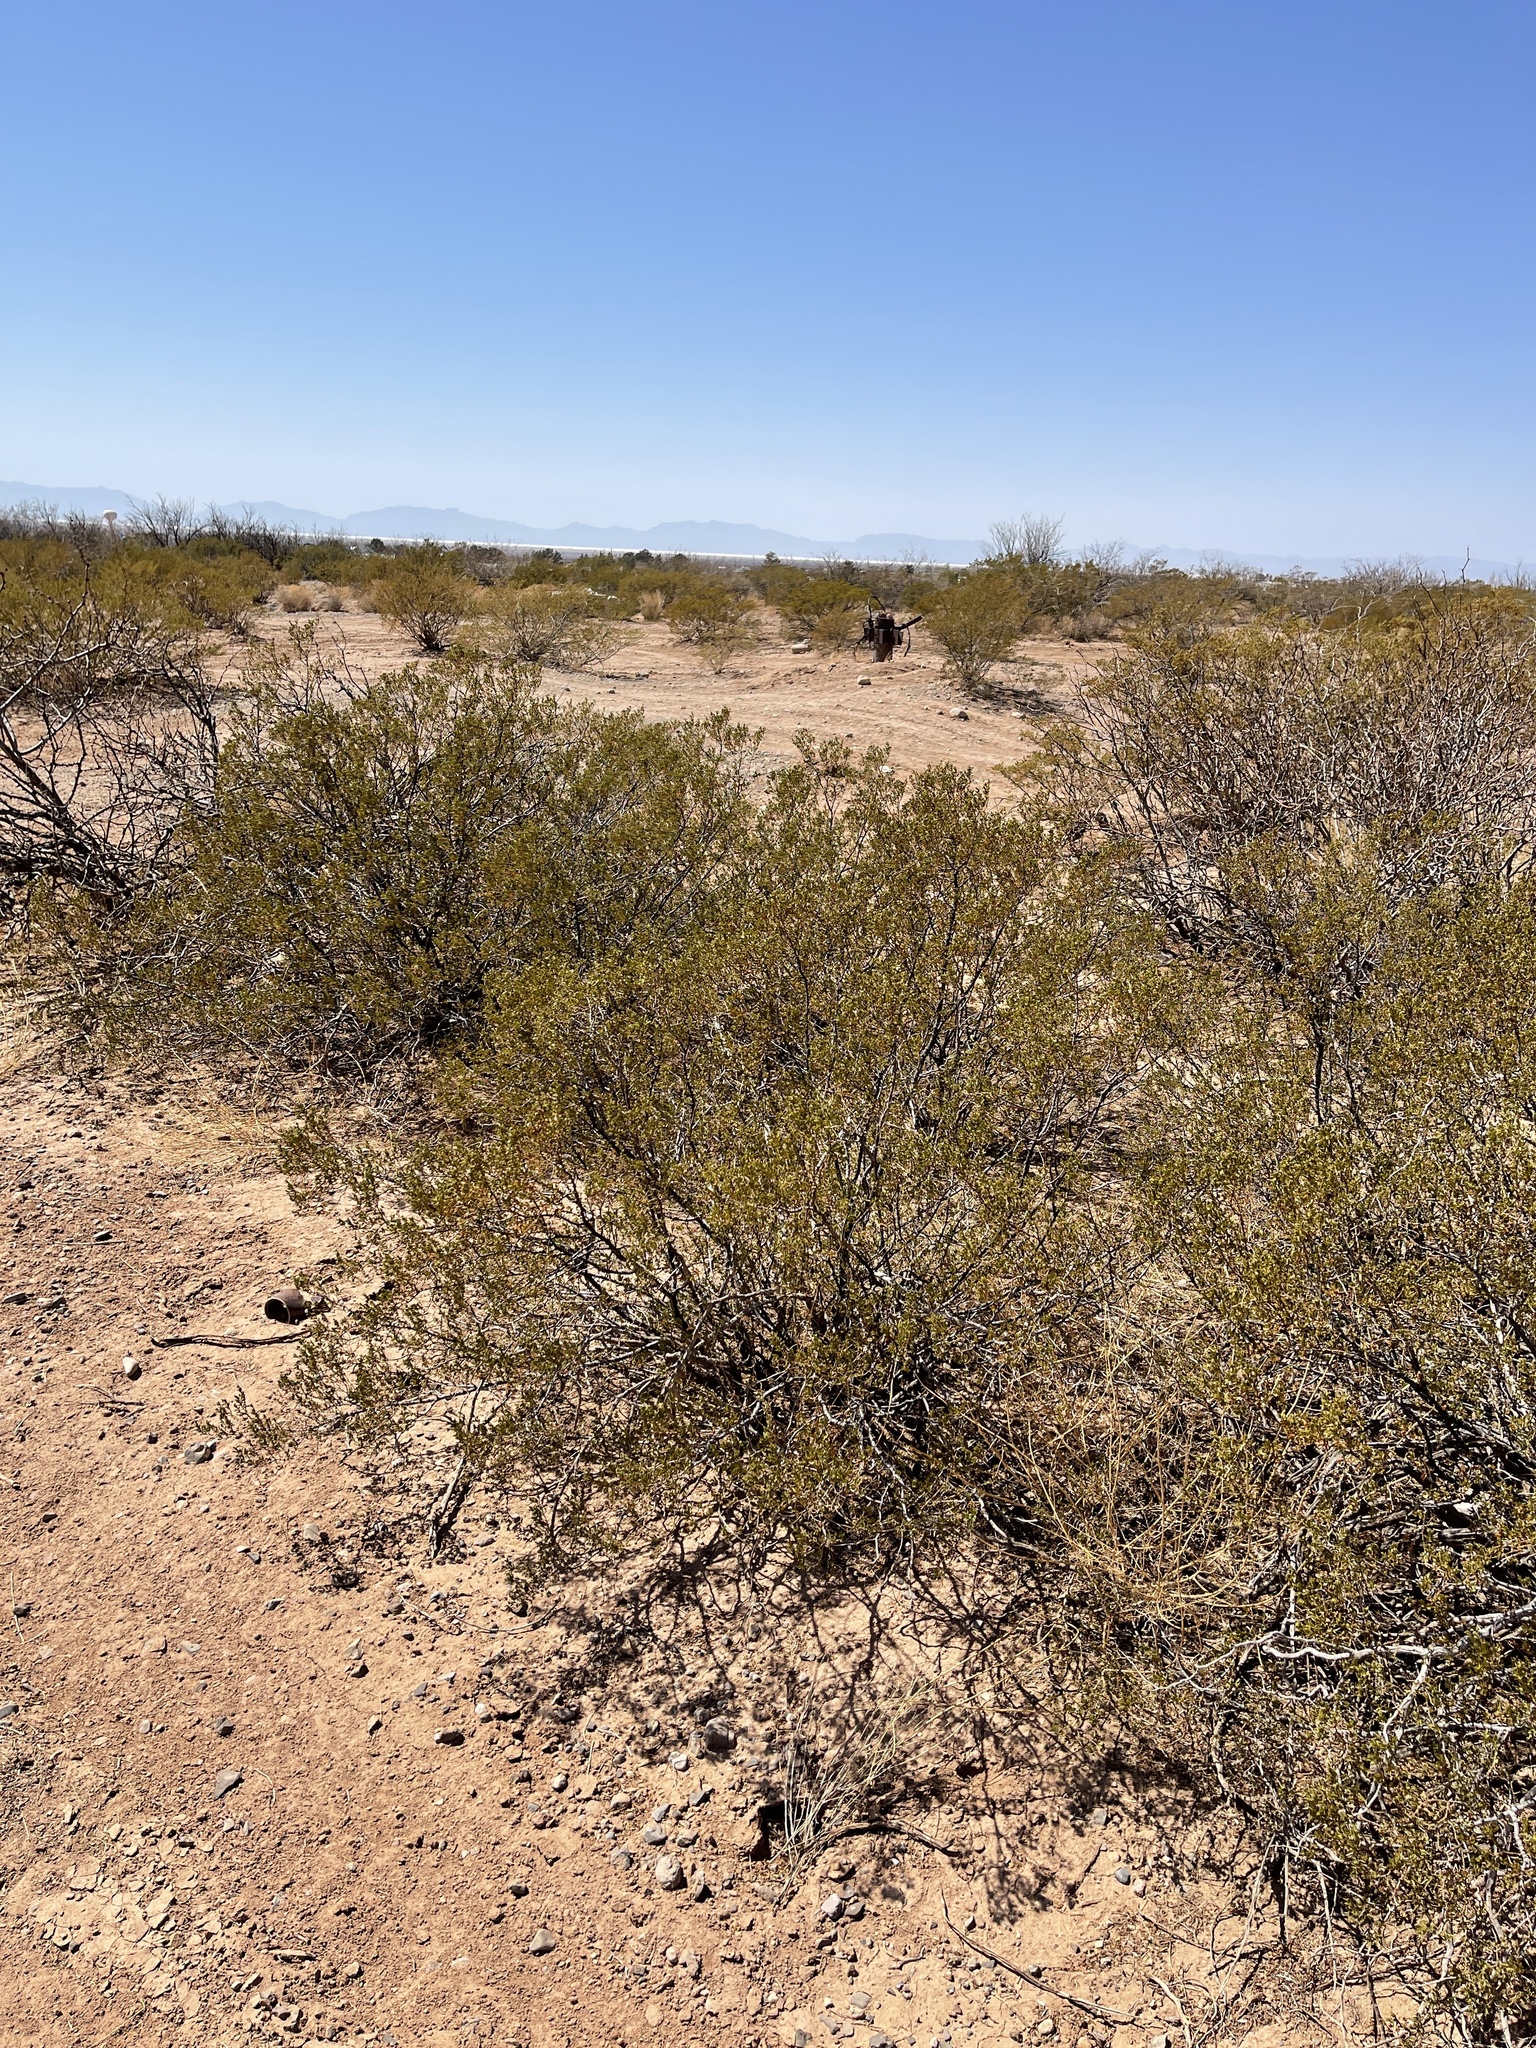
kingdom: Plantae
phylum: Tracheophyta
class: Magnoliopsida
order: Zygophyllales
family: Zygophyllaceae
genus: Larrea
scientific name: Larrea tridentata
